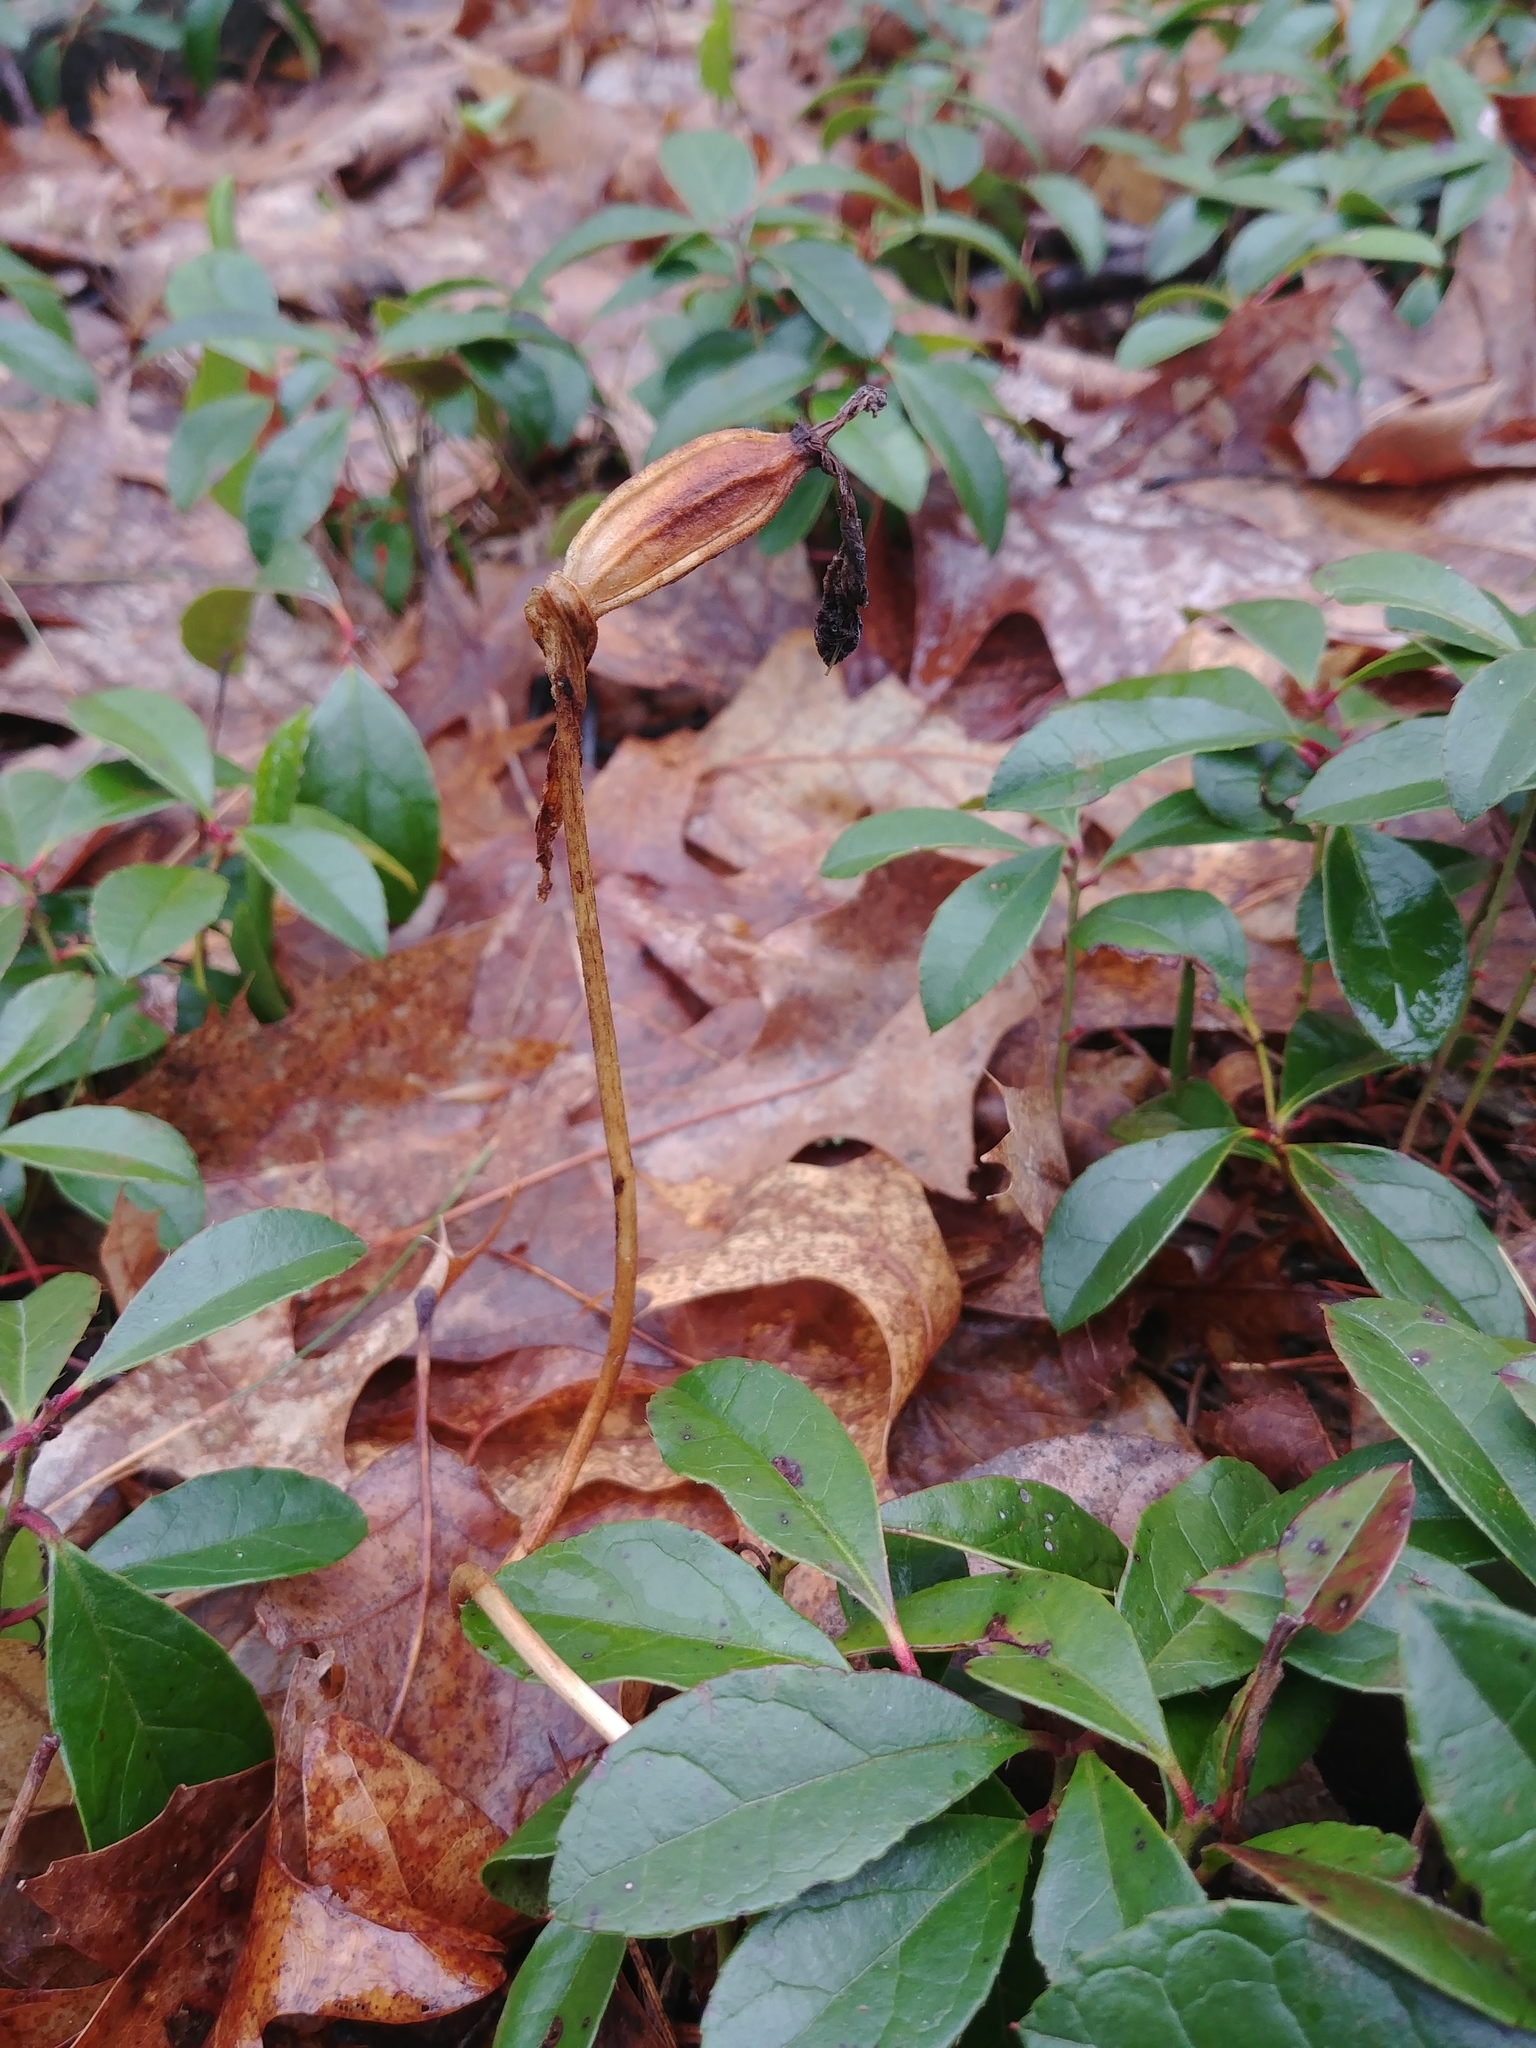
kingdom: Plantae
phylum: Tracheophyta
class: Liliopsida
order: Asparagales
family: Orchidaceae
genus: Cypripedium
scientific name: Cypripedium acaule
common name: Pink lady's-slipper
